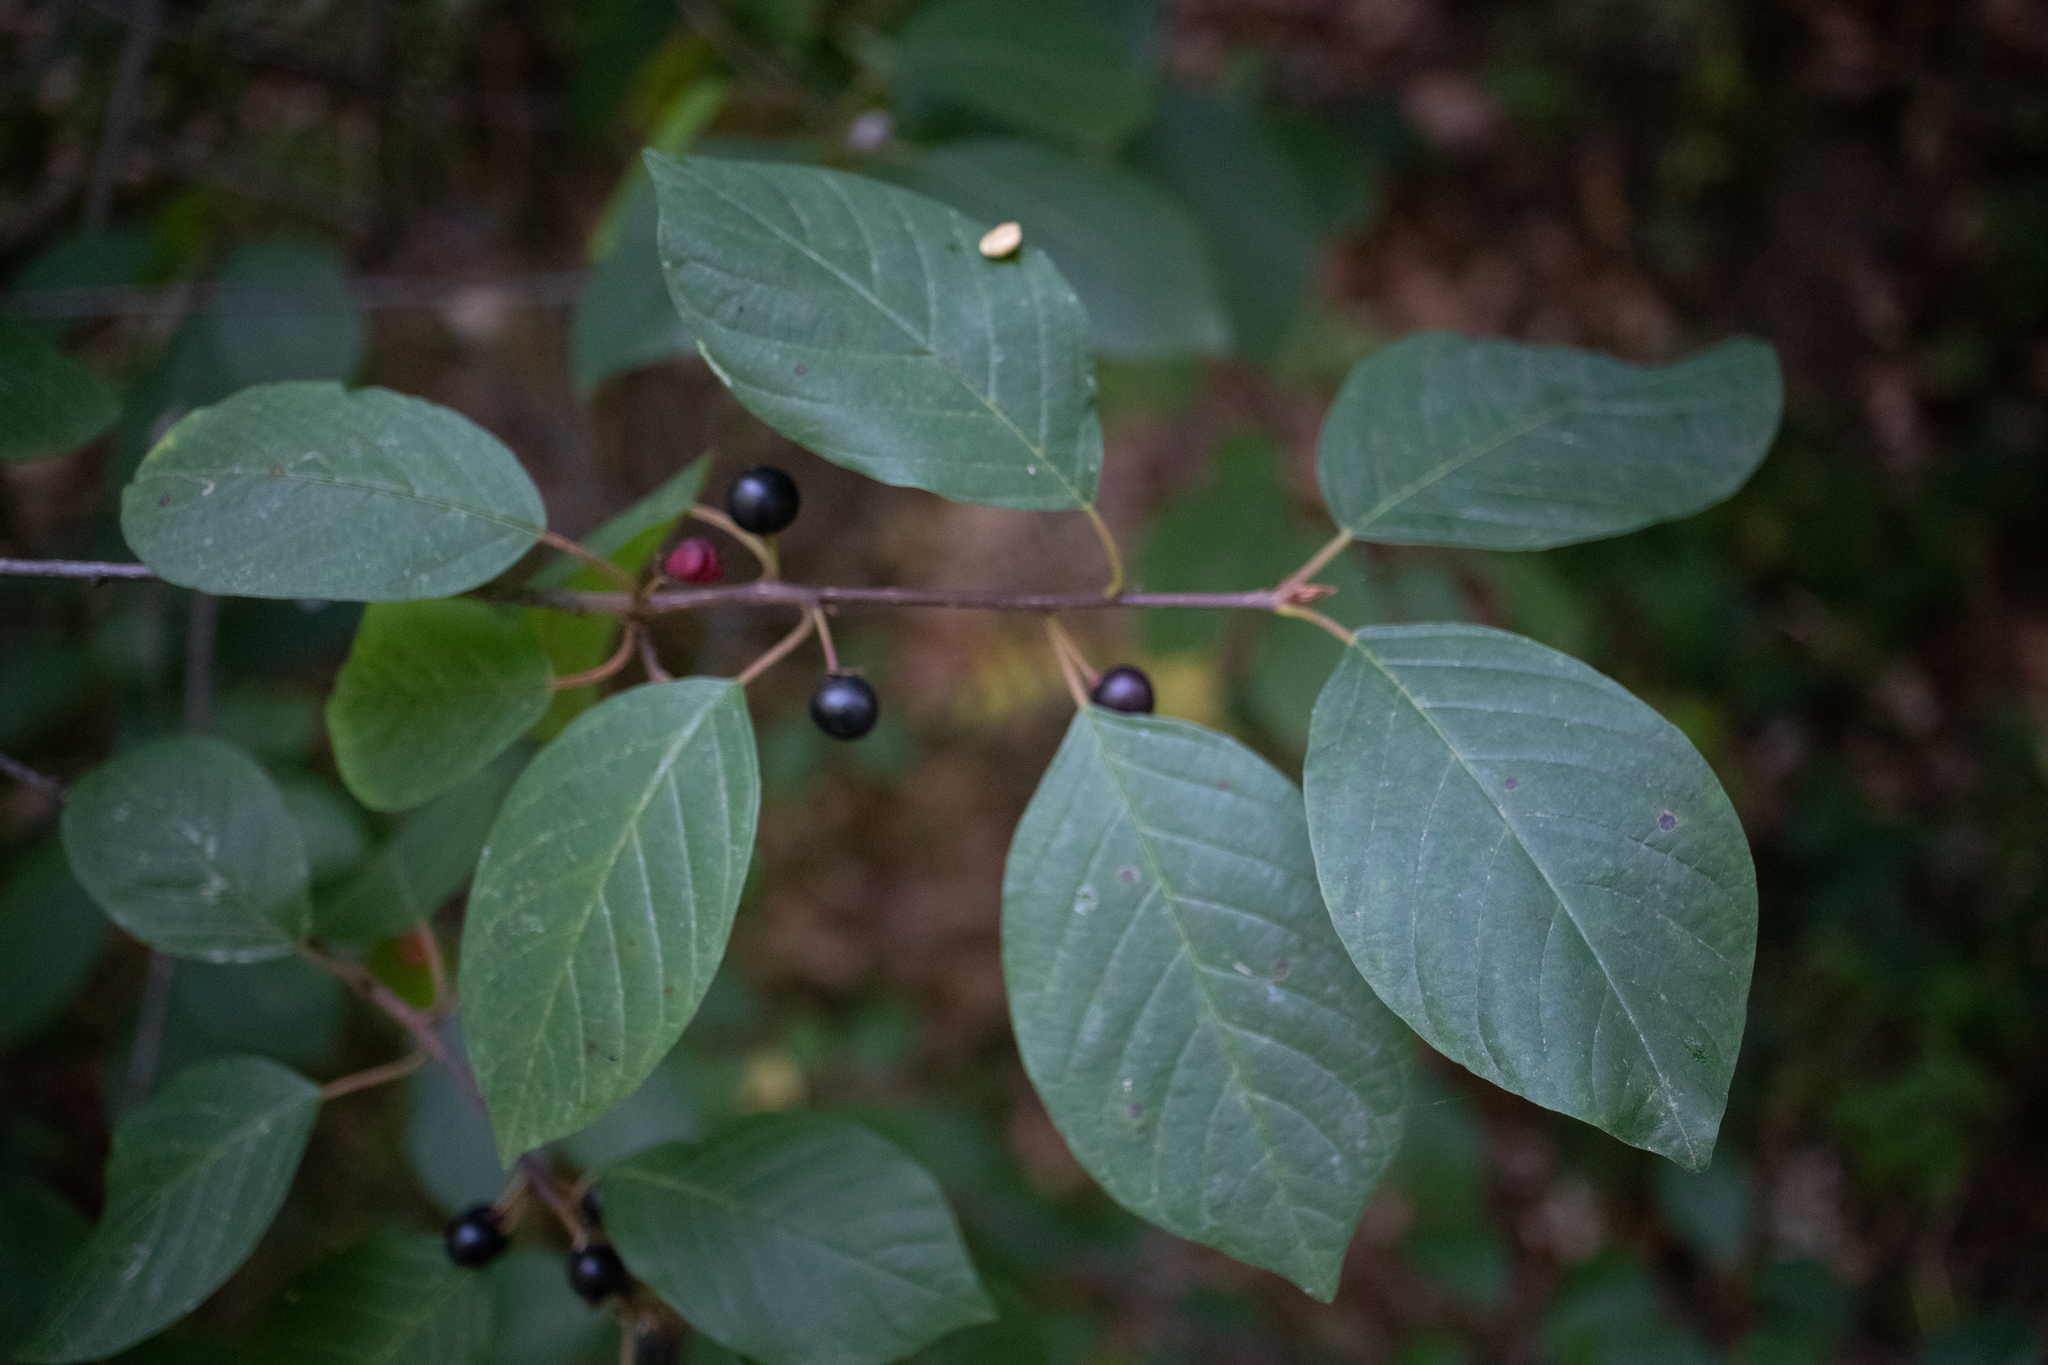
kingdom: Plantae
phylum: Tracheophyta
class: Magnoliopsida
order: Rosales
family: Rhamnaceae
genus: Frangula
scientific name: Frangula alnus
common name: Alder buckthorn
